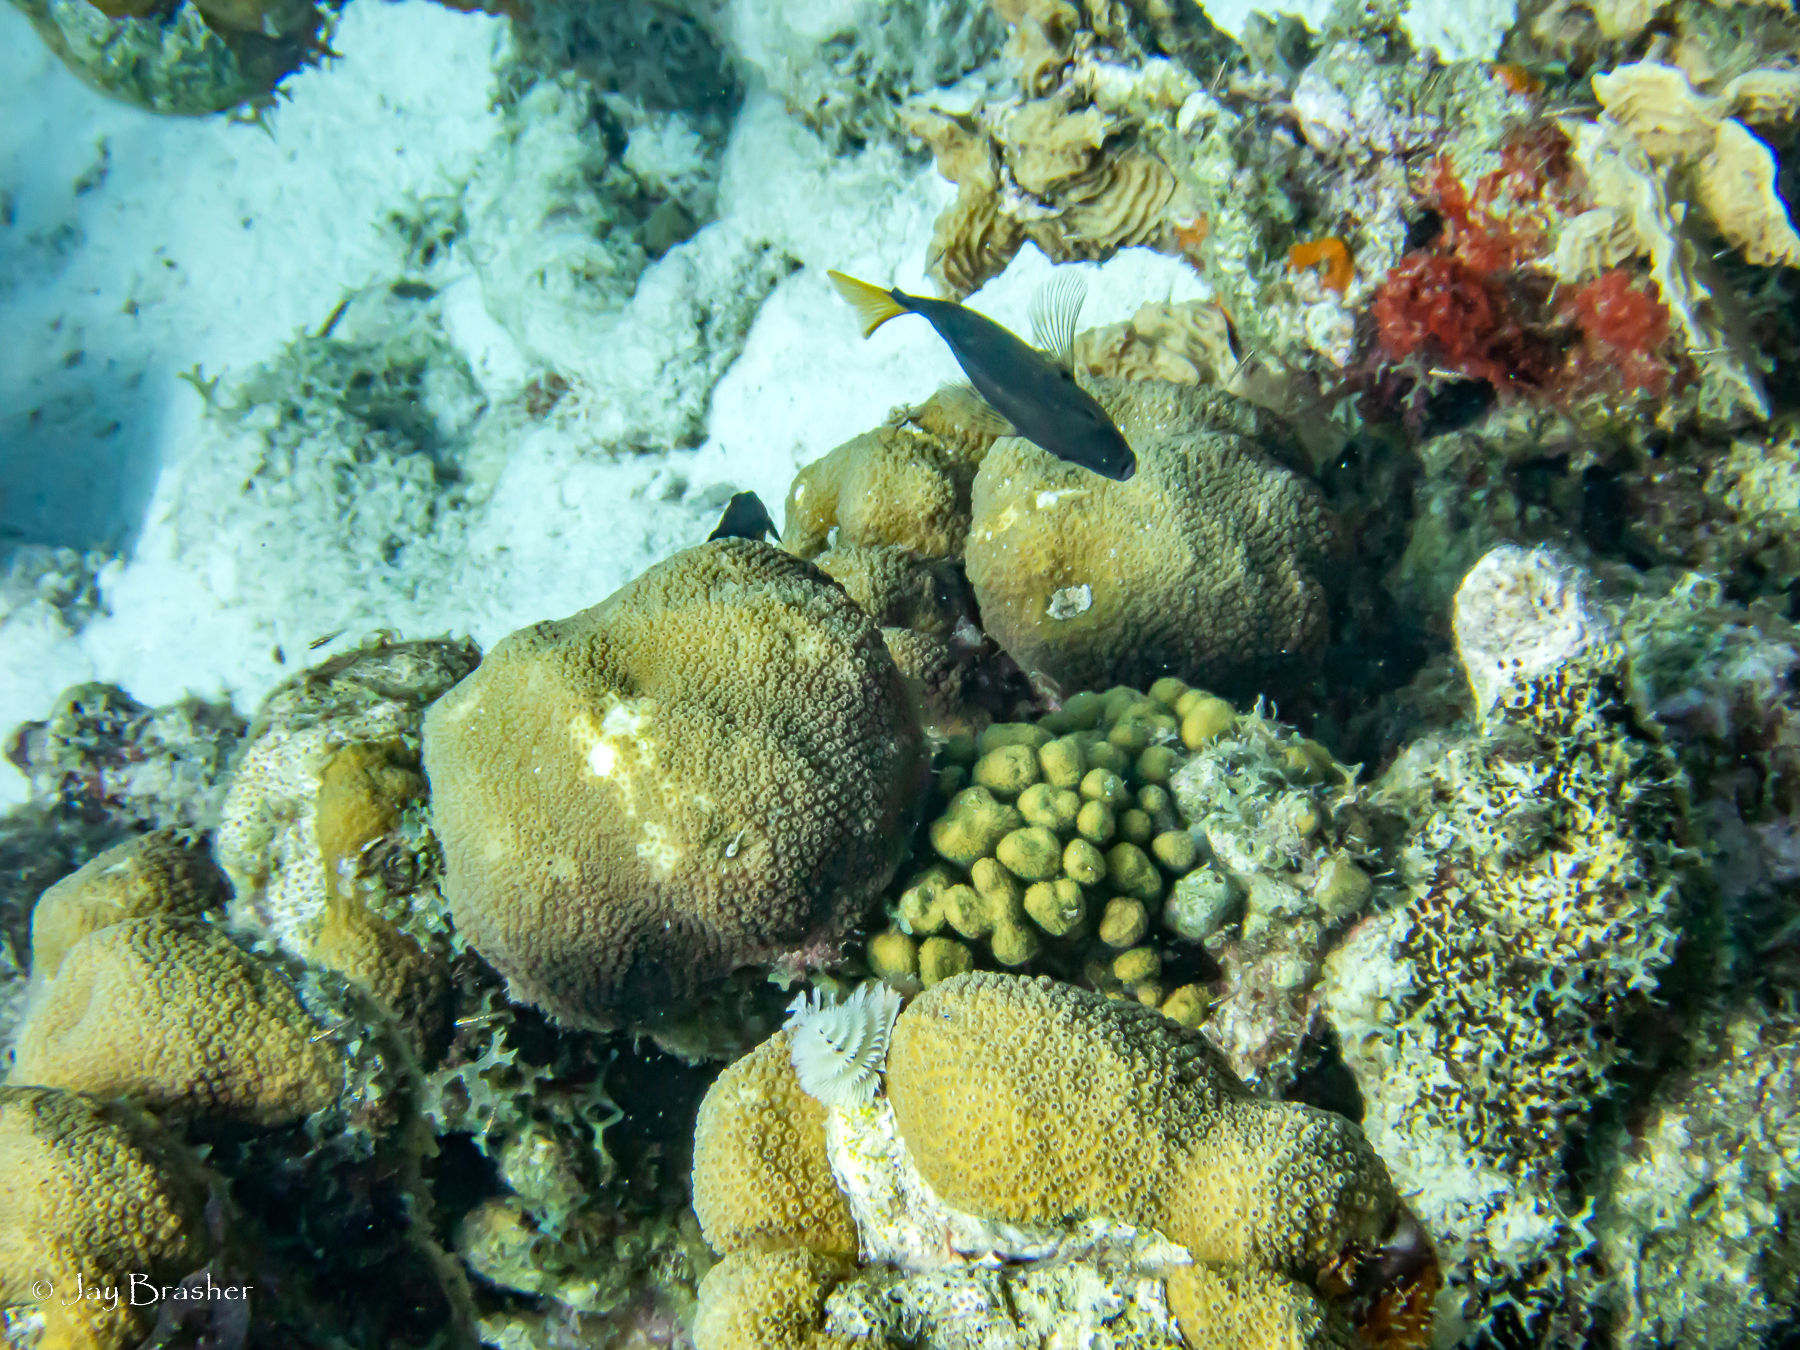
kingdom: Animalia
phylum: Chordata
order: Perciformes
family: Serranidae
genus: Hypoplectrus
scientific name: Hypoplectrus chlorurus
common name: Yellowtail hamlet
